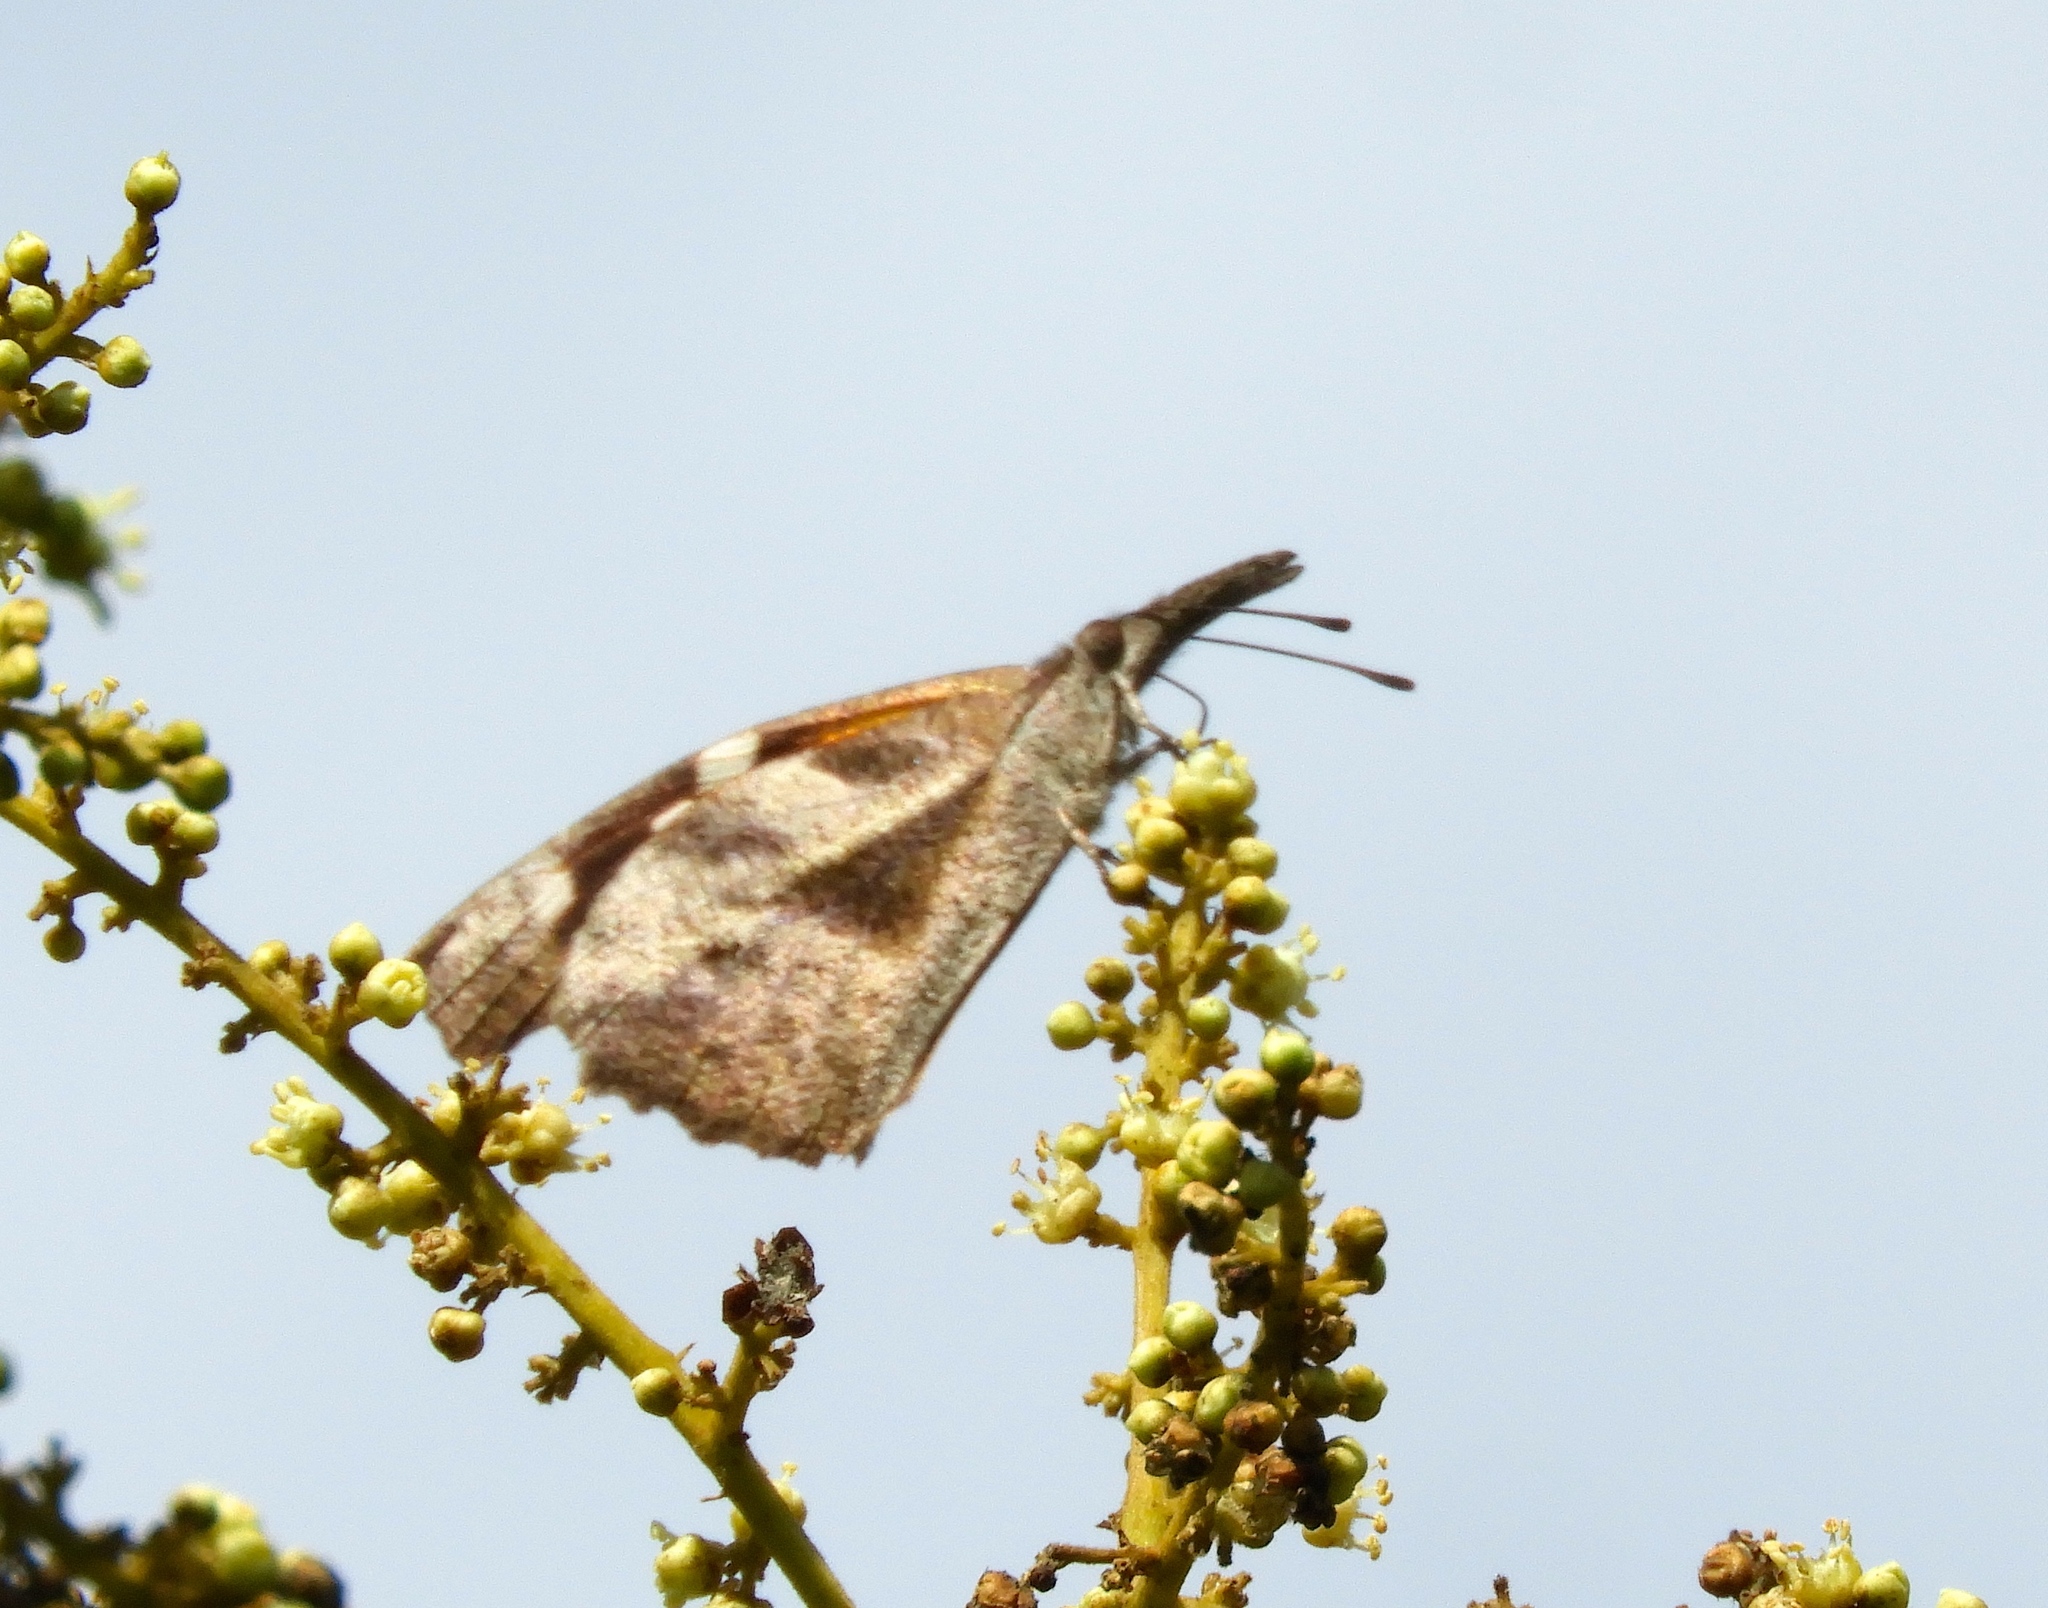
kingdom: Animalia
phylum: Arthropoda
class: Insecta
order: Lepidoptera
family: Nymphalidae
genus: Libytheana
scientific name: Libytheana carinenta
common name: American snout
